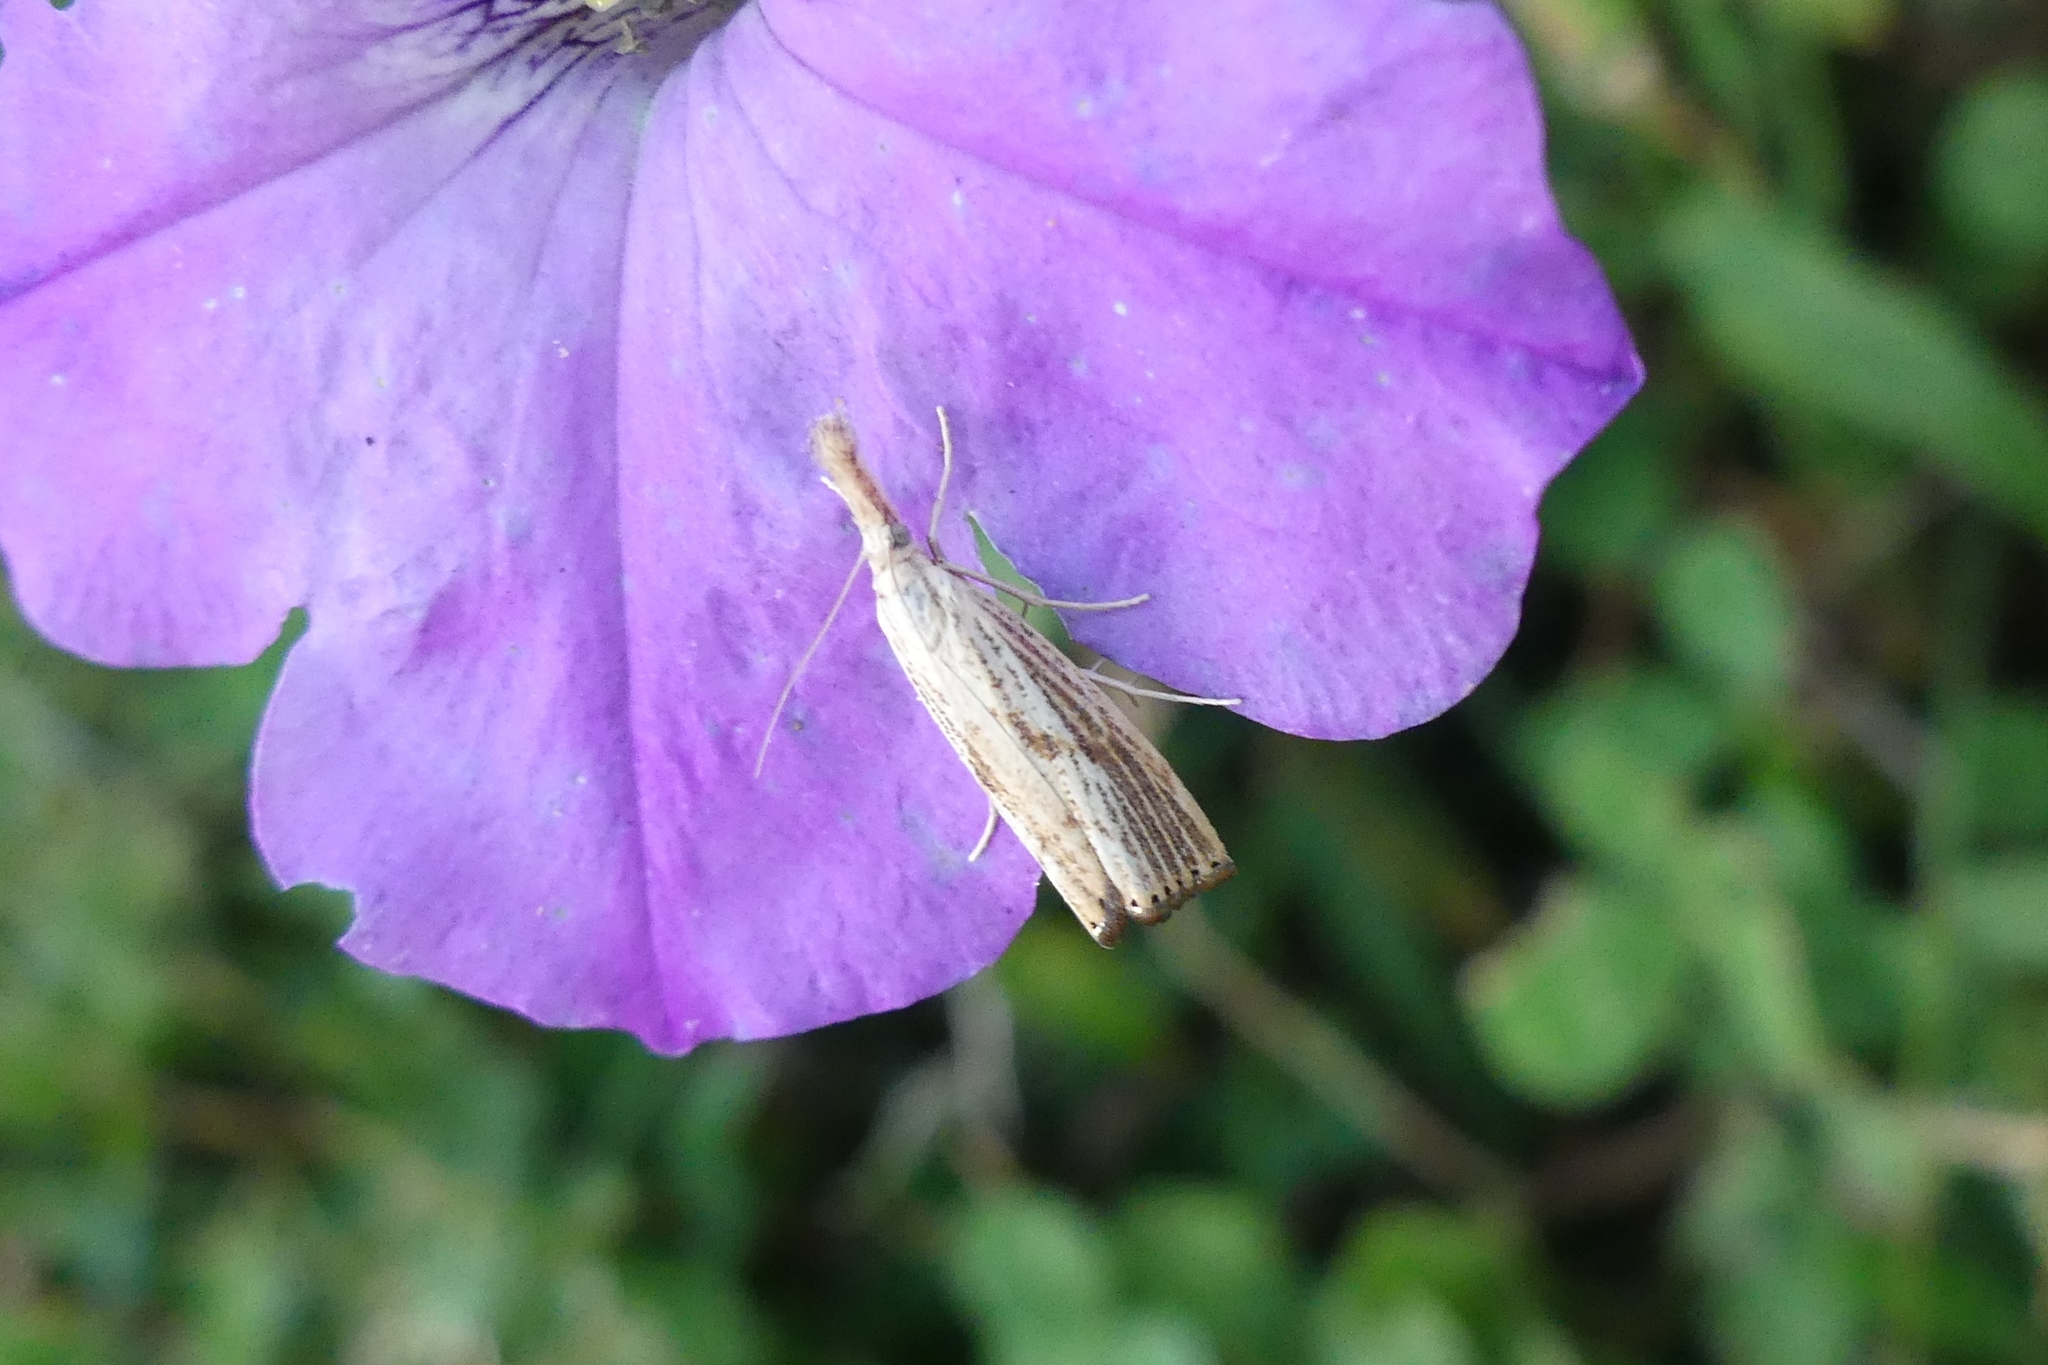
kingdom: Animalia
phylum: Arthropoda
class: Insecta
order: Lepidoptera
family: Crambidae
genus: Agriphila
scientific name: Agriphila ruricolellus
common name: Lesser vagabond sod webworm
